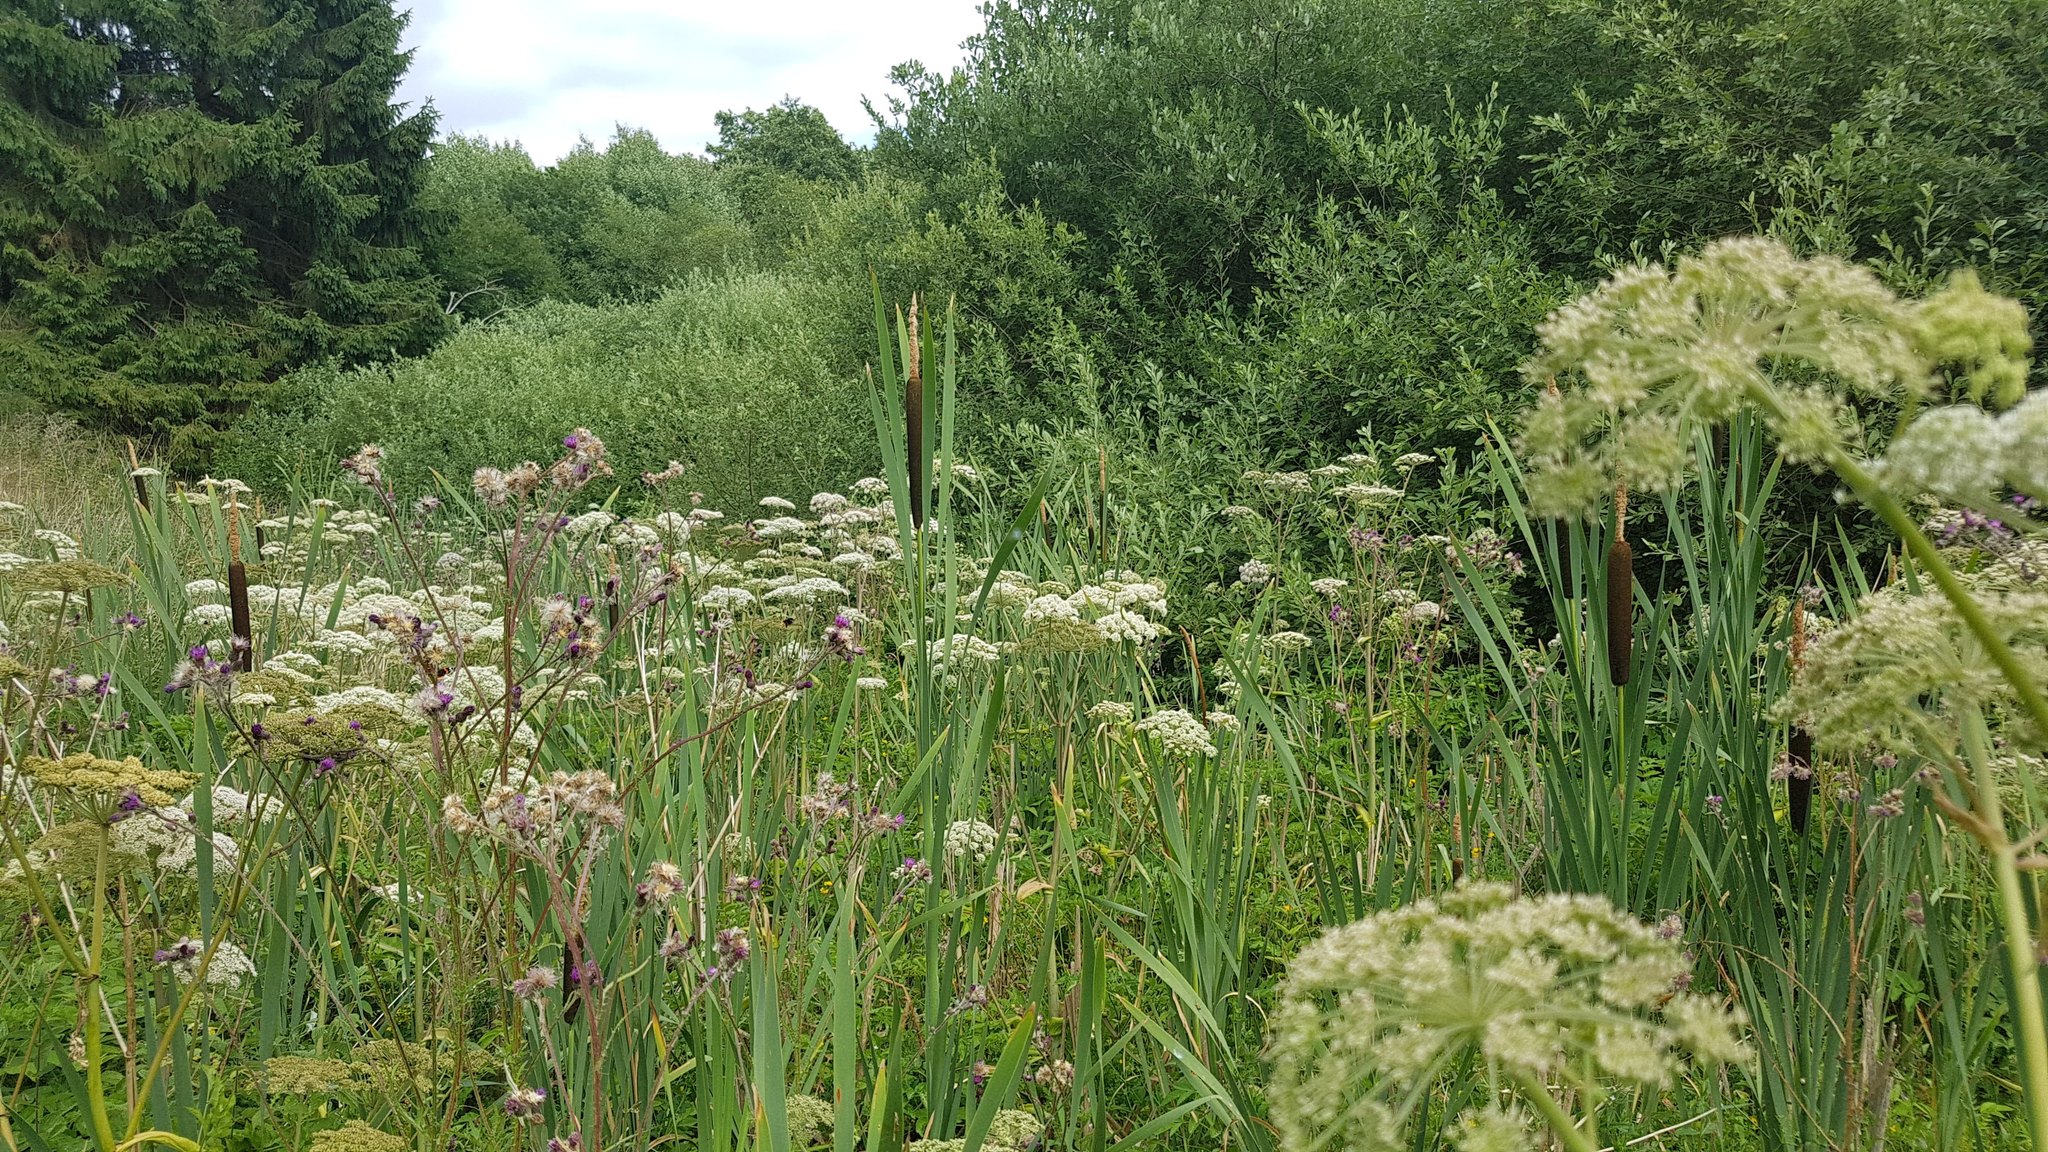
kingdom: Plantae
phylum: Tracheophyta
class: Magnoliopsida
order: Apiales
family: Apiaceae
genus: Angelica
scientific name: Angelica sylvestris
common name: Wild angelica
